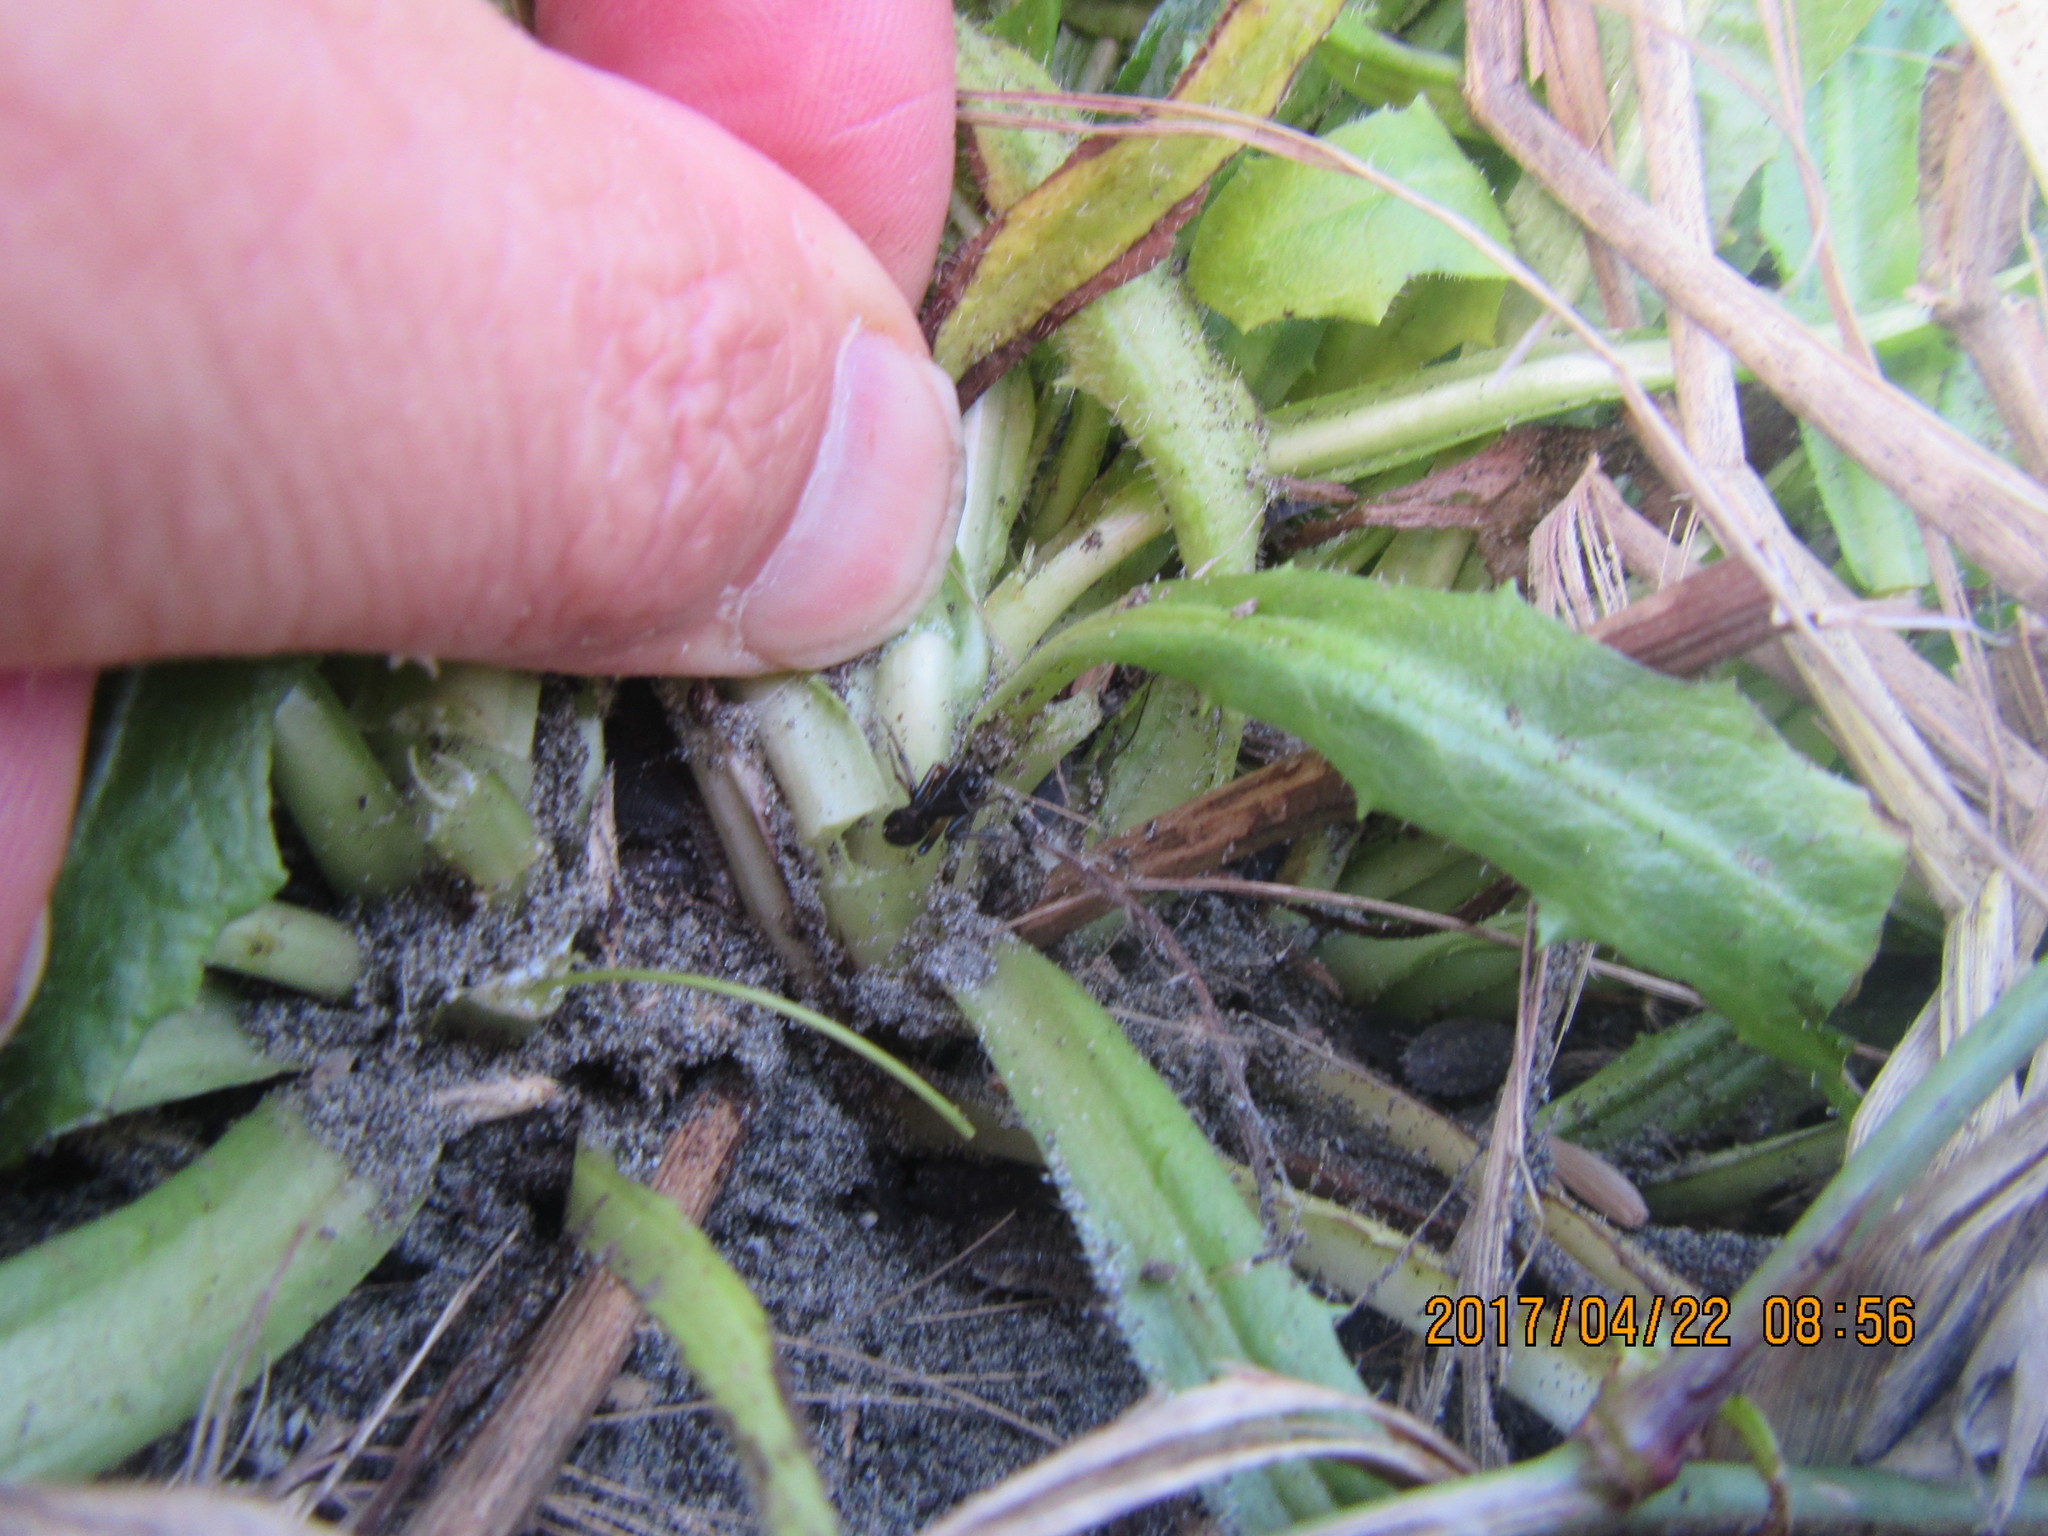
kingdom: Animalia
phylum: Arthropoda
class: Arachnida
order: Araneae
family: Theridiidae
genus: Steatoda
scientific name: Steatoda capensis
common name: Cobweb weaver
